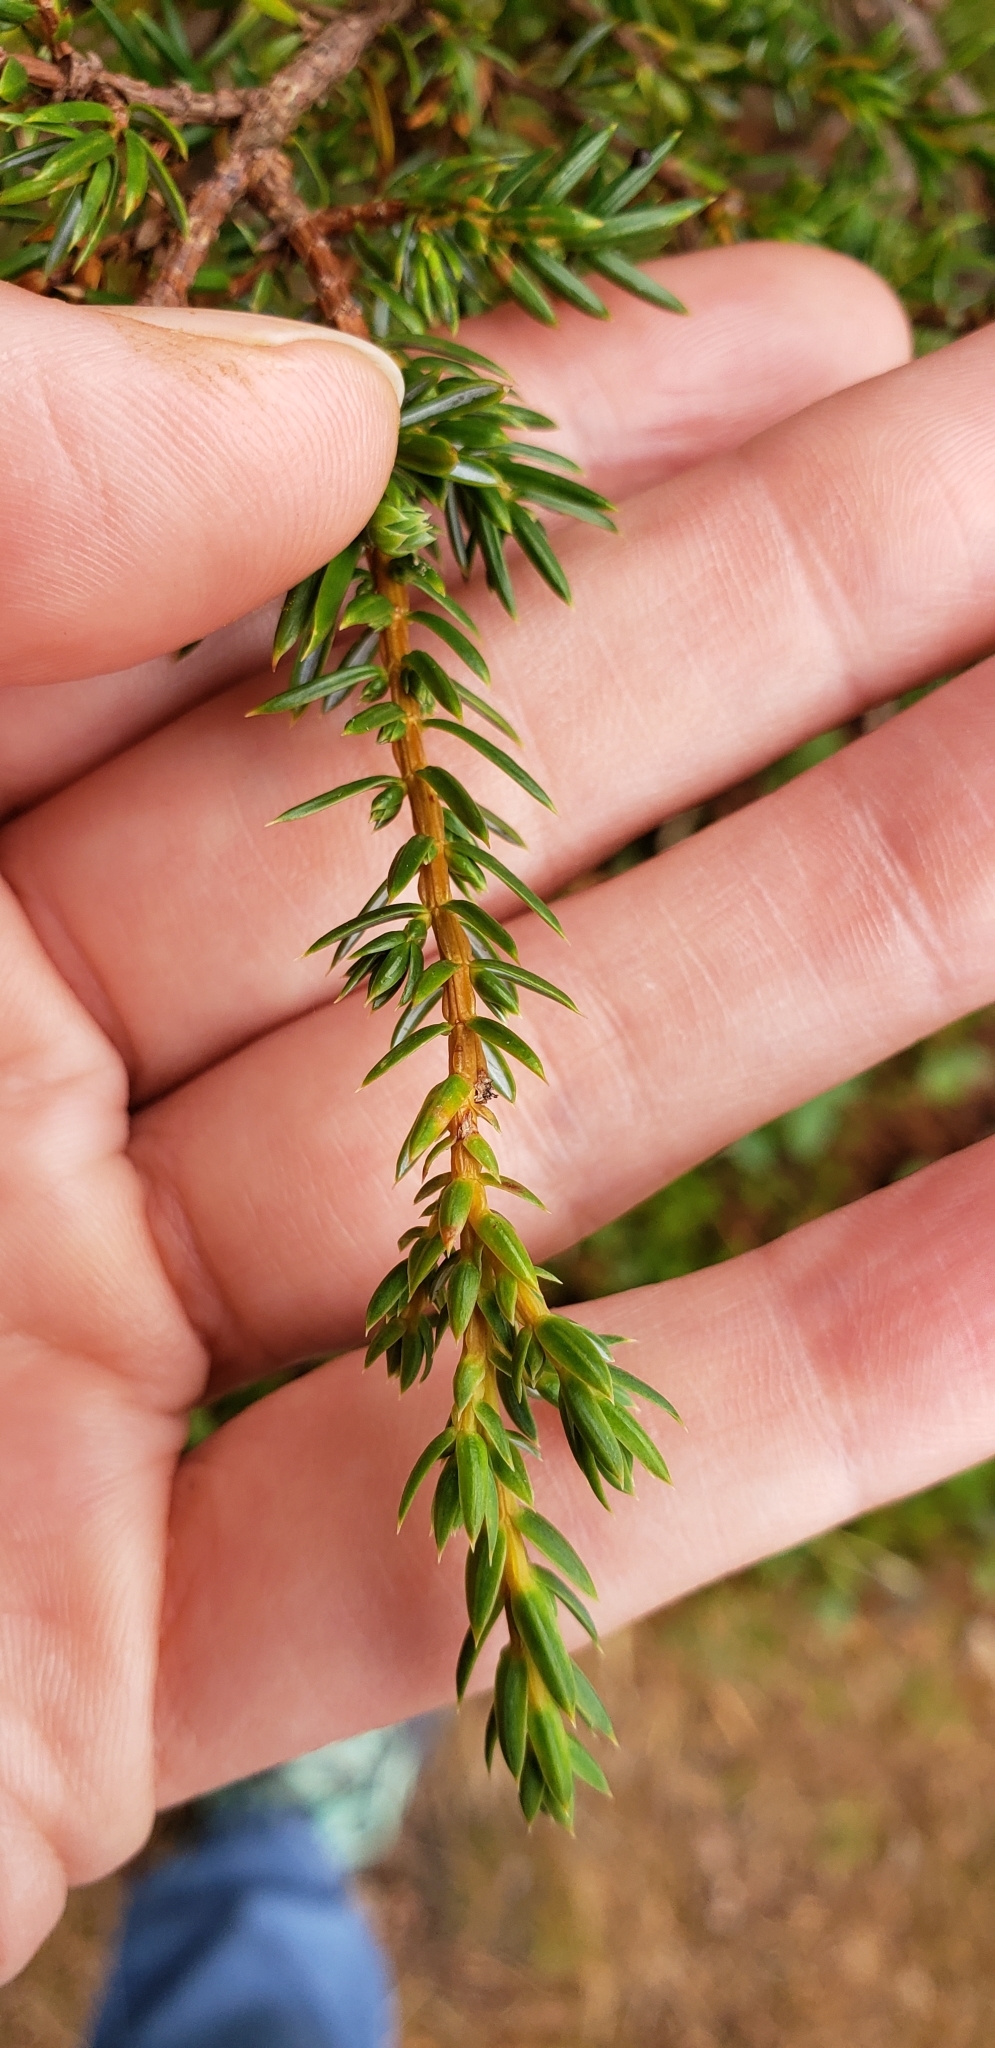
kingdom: Plantae
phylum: Tracheophyta
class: Pinopsida
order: Pinales
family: Cupressaceae
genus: Juniperus
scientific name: Juniperus communis
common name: Common juniper
